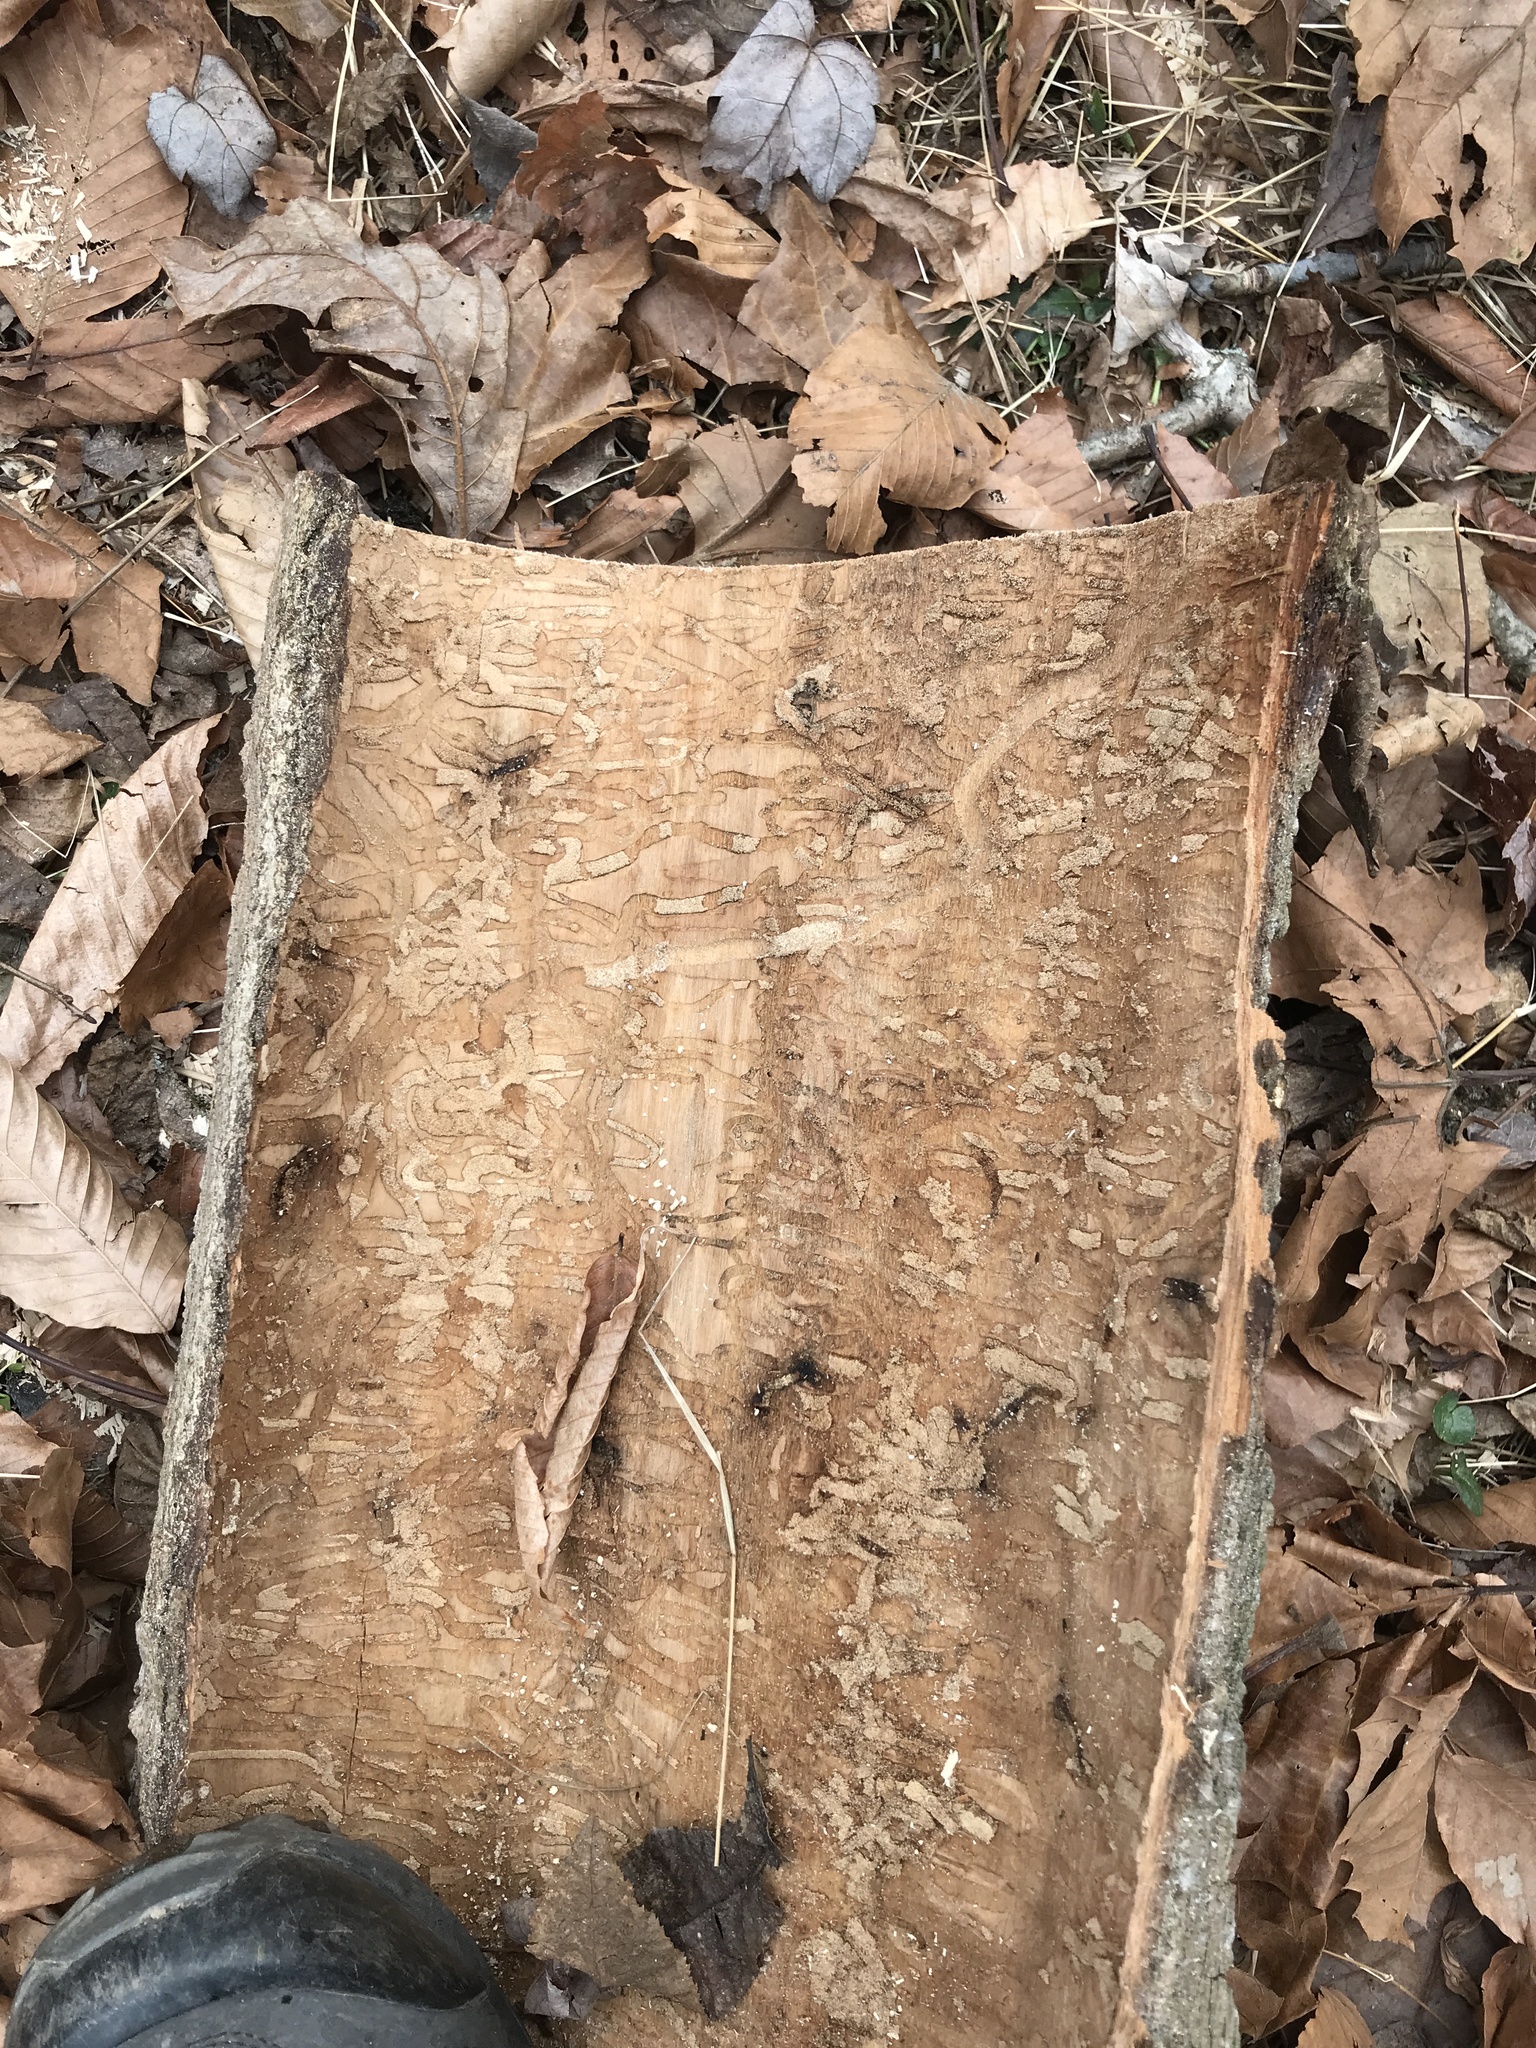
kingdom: Animalia
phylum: Arthropoda
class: Insecta
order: Coleoptera
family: Buprestidae
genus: Agrilus
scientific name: Agrilus planipennis
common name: Emerald ash borer
